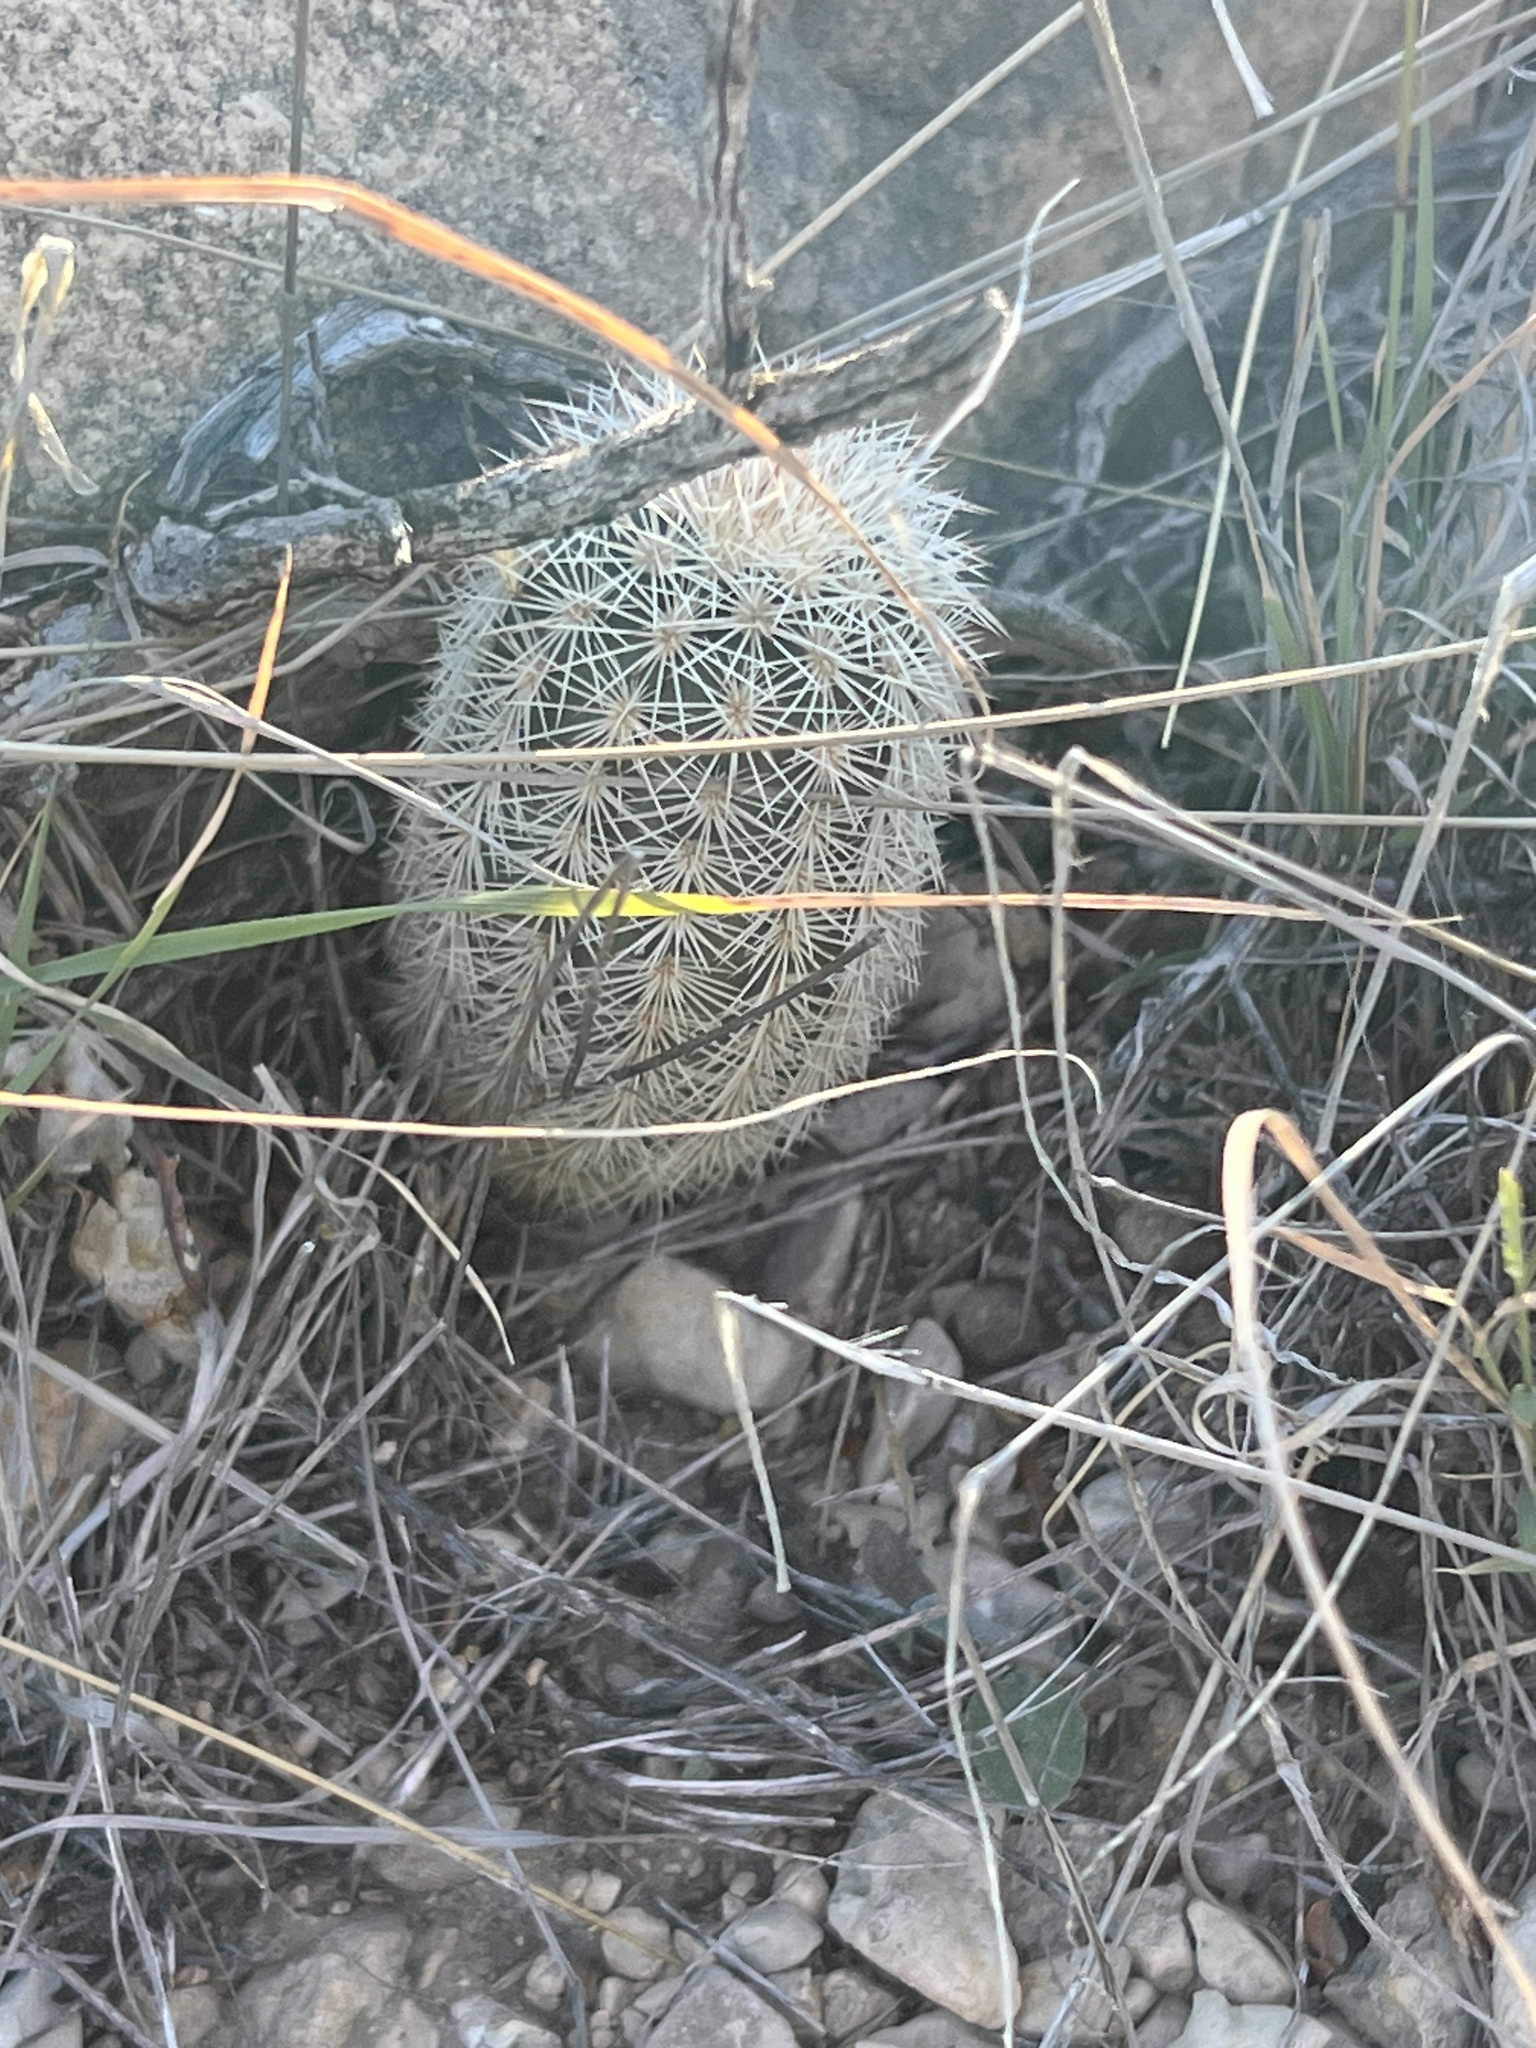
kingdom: Plantae
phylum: Tracheophyta
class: Magnoliopsida
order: Caryophyllales
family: Cactaceae
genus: Echinocereus
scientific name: Echinocereus dasyacanthus
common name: Spiny hedgehog cactus
